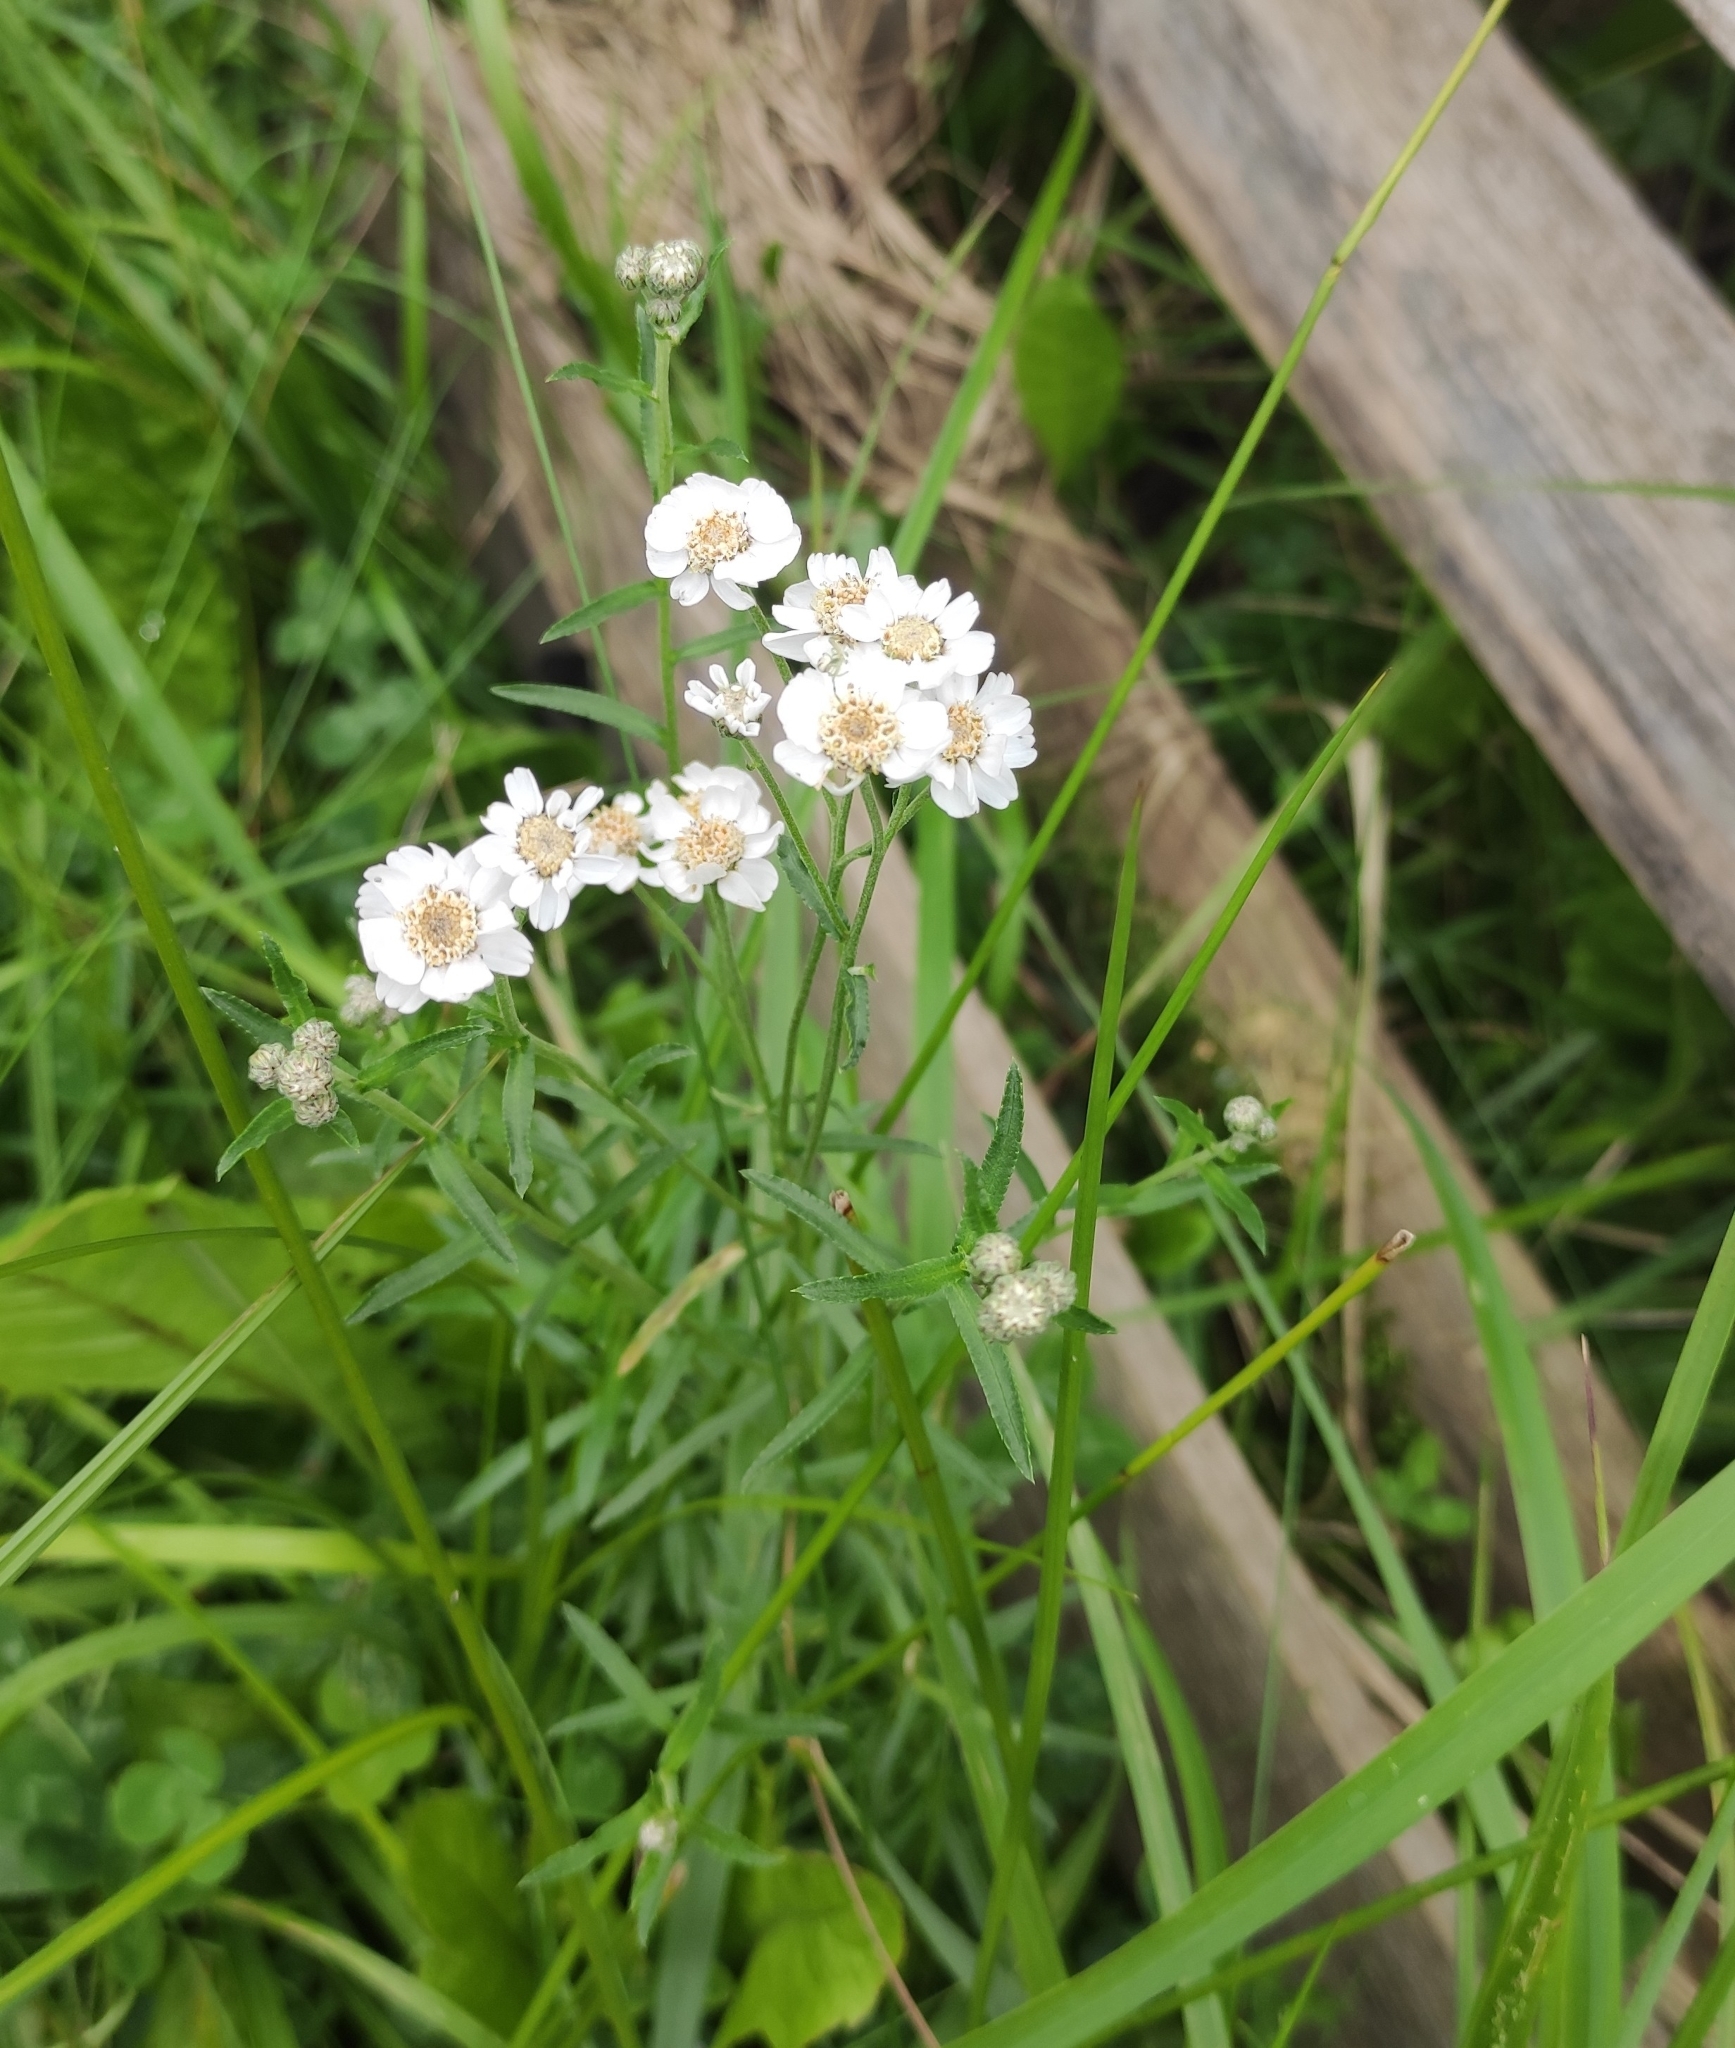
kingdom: Plantae
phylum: Tracheophyta
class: Magnoliopsida
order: Asterales
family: Asteraceae
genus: Achillea
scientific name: Achillea ptarmica
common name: Sneezeweed
